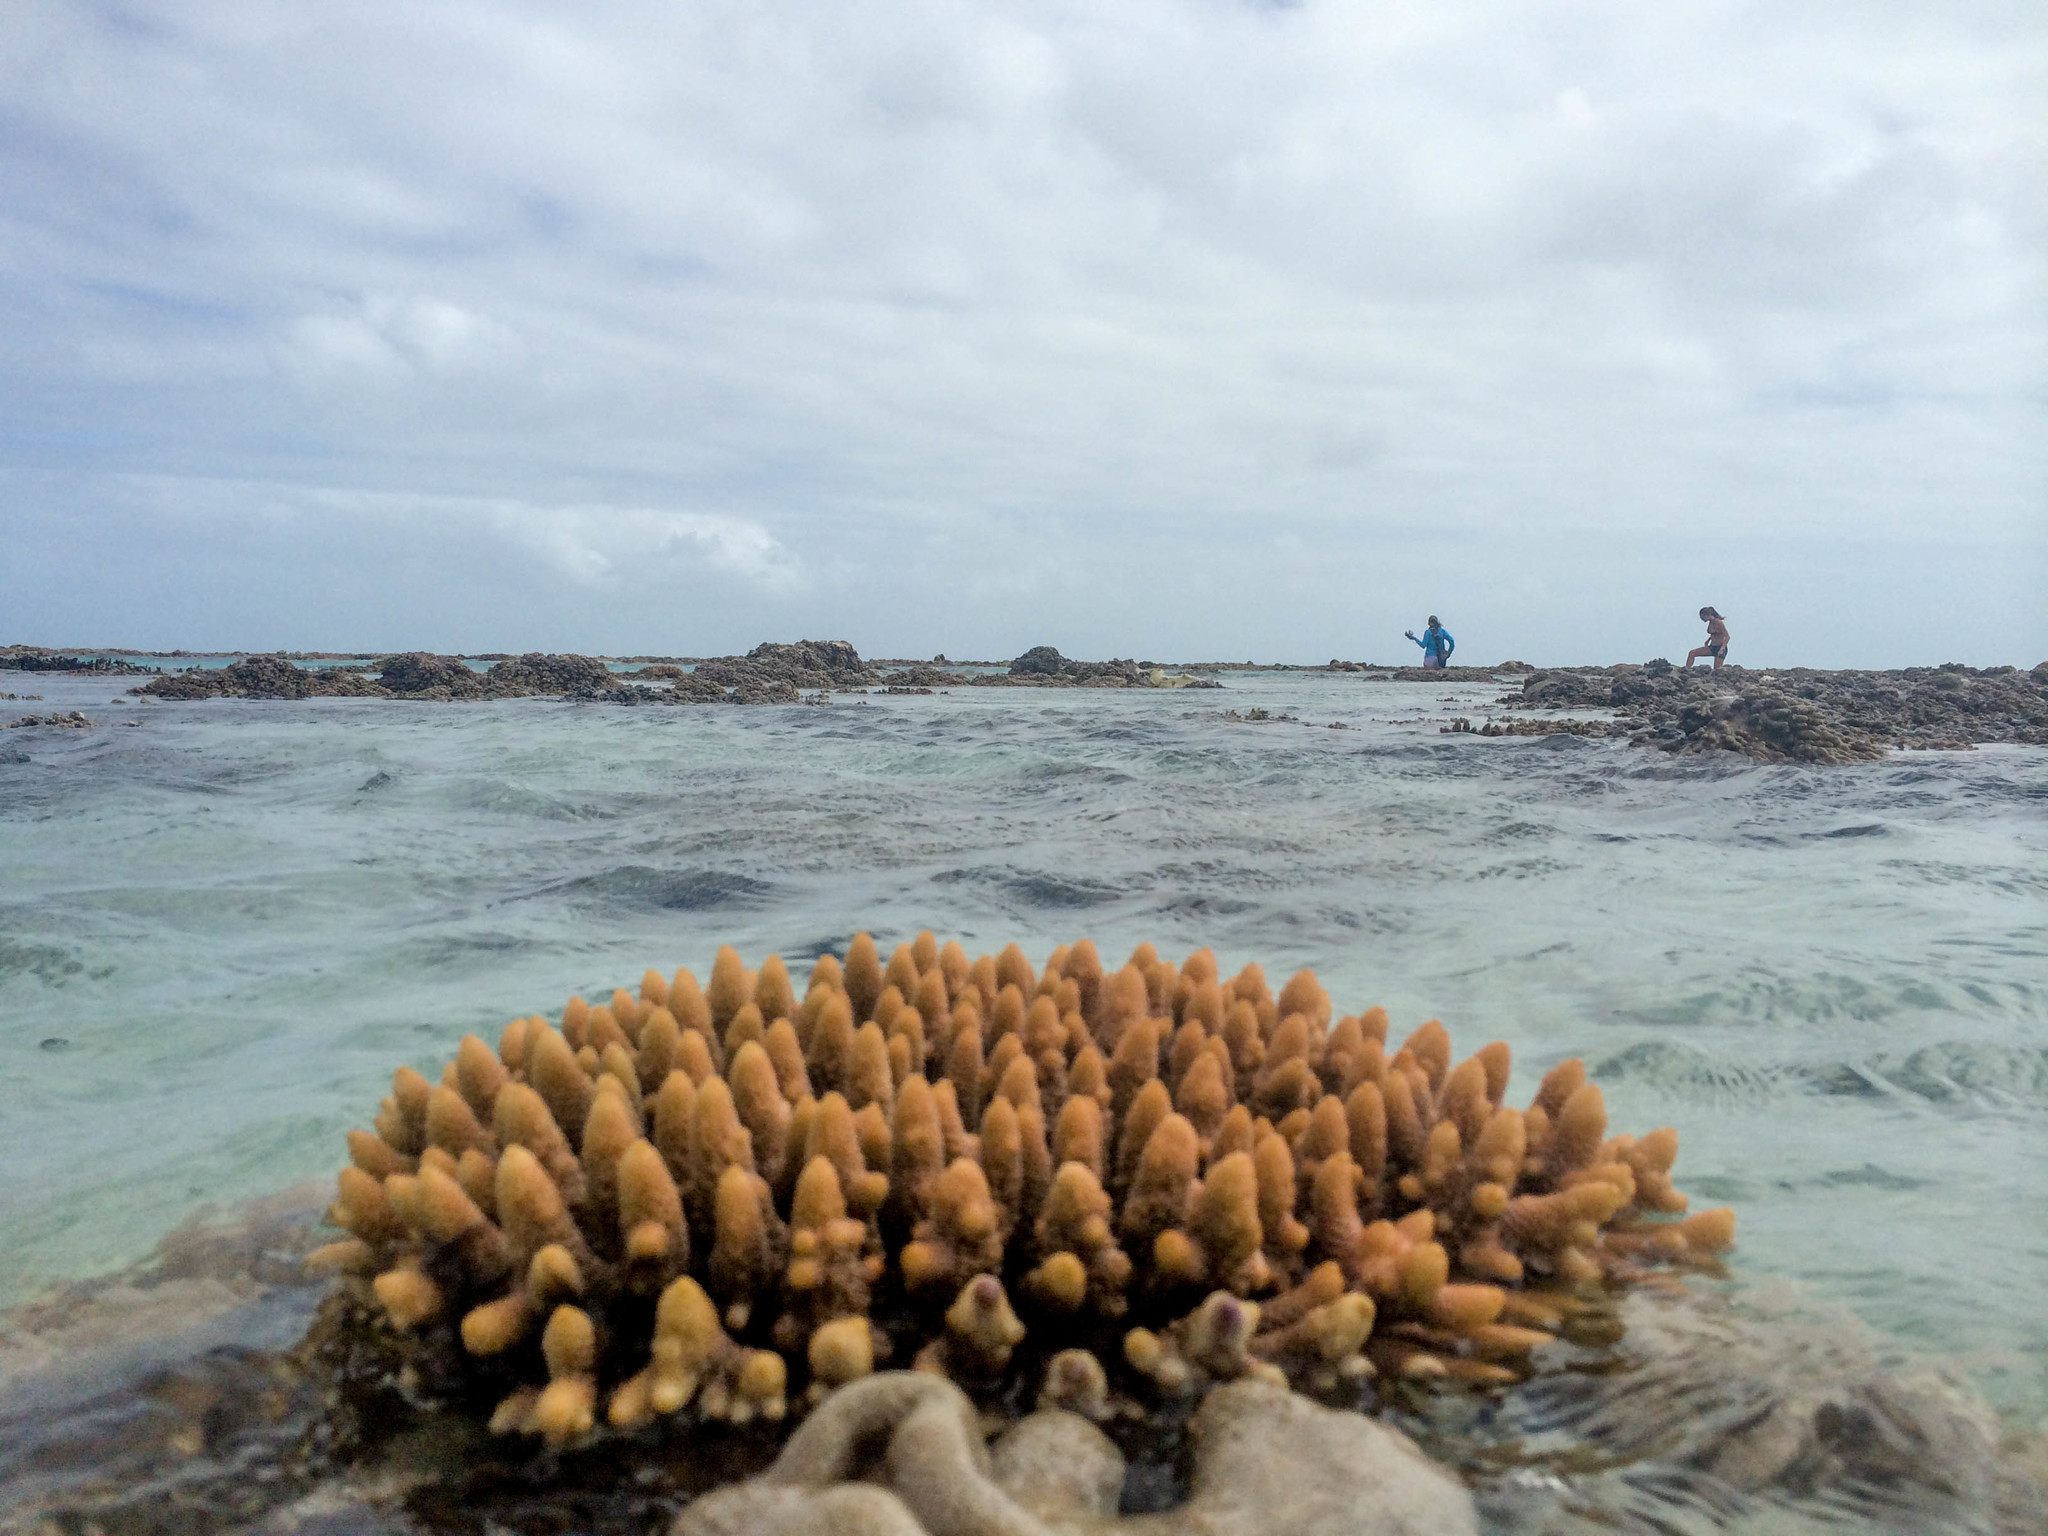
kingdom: Animalia
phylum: Cnidaria
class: Anthozoa
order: Scleractinia
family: Acroporidae
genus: Acropora
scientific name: Acropora millepora
